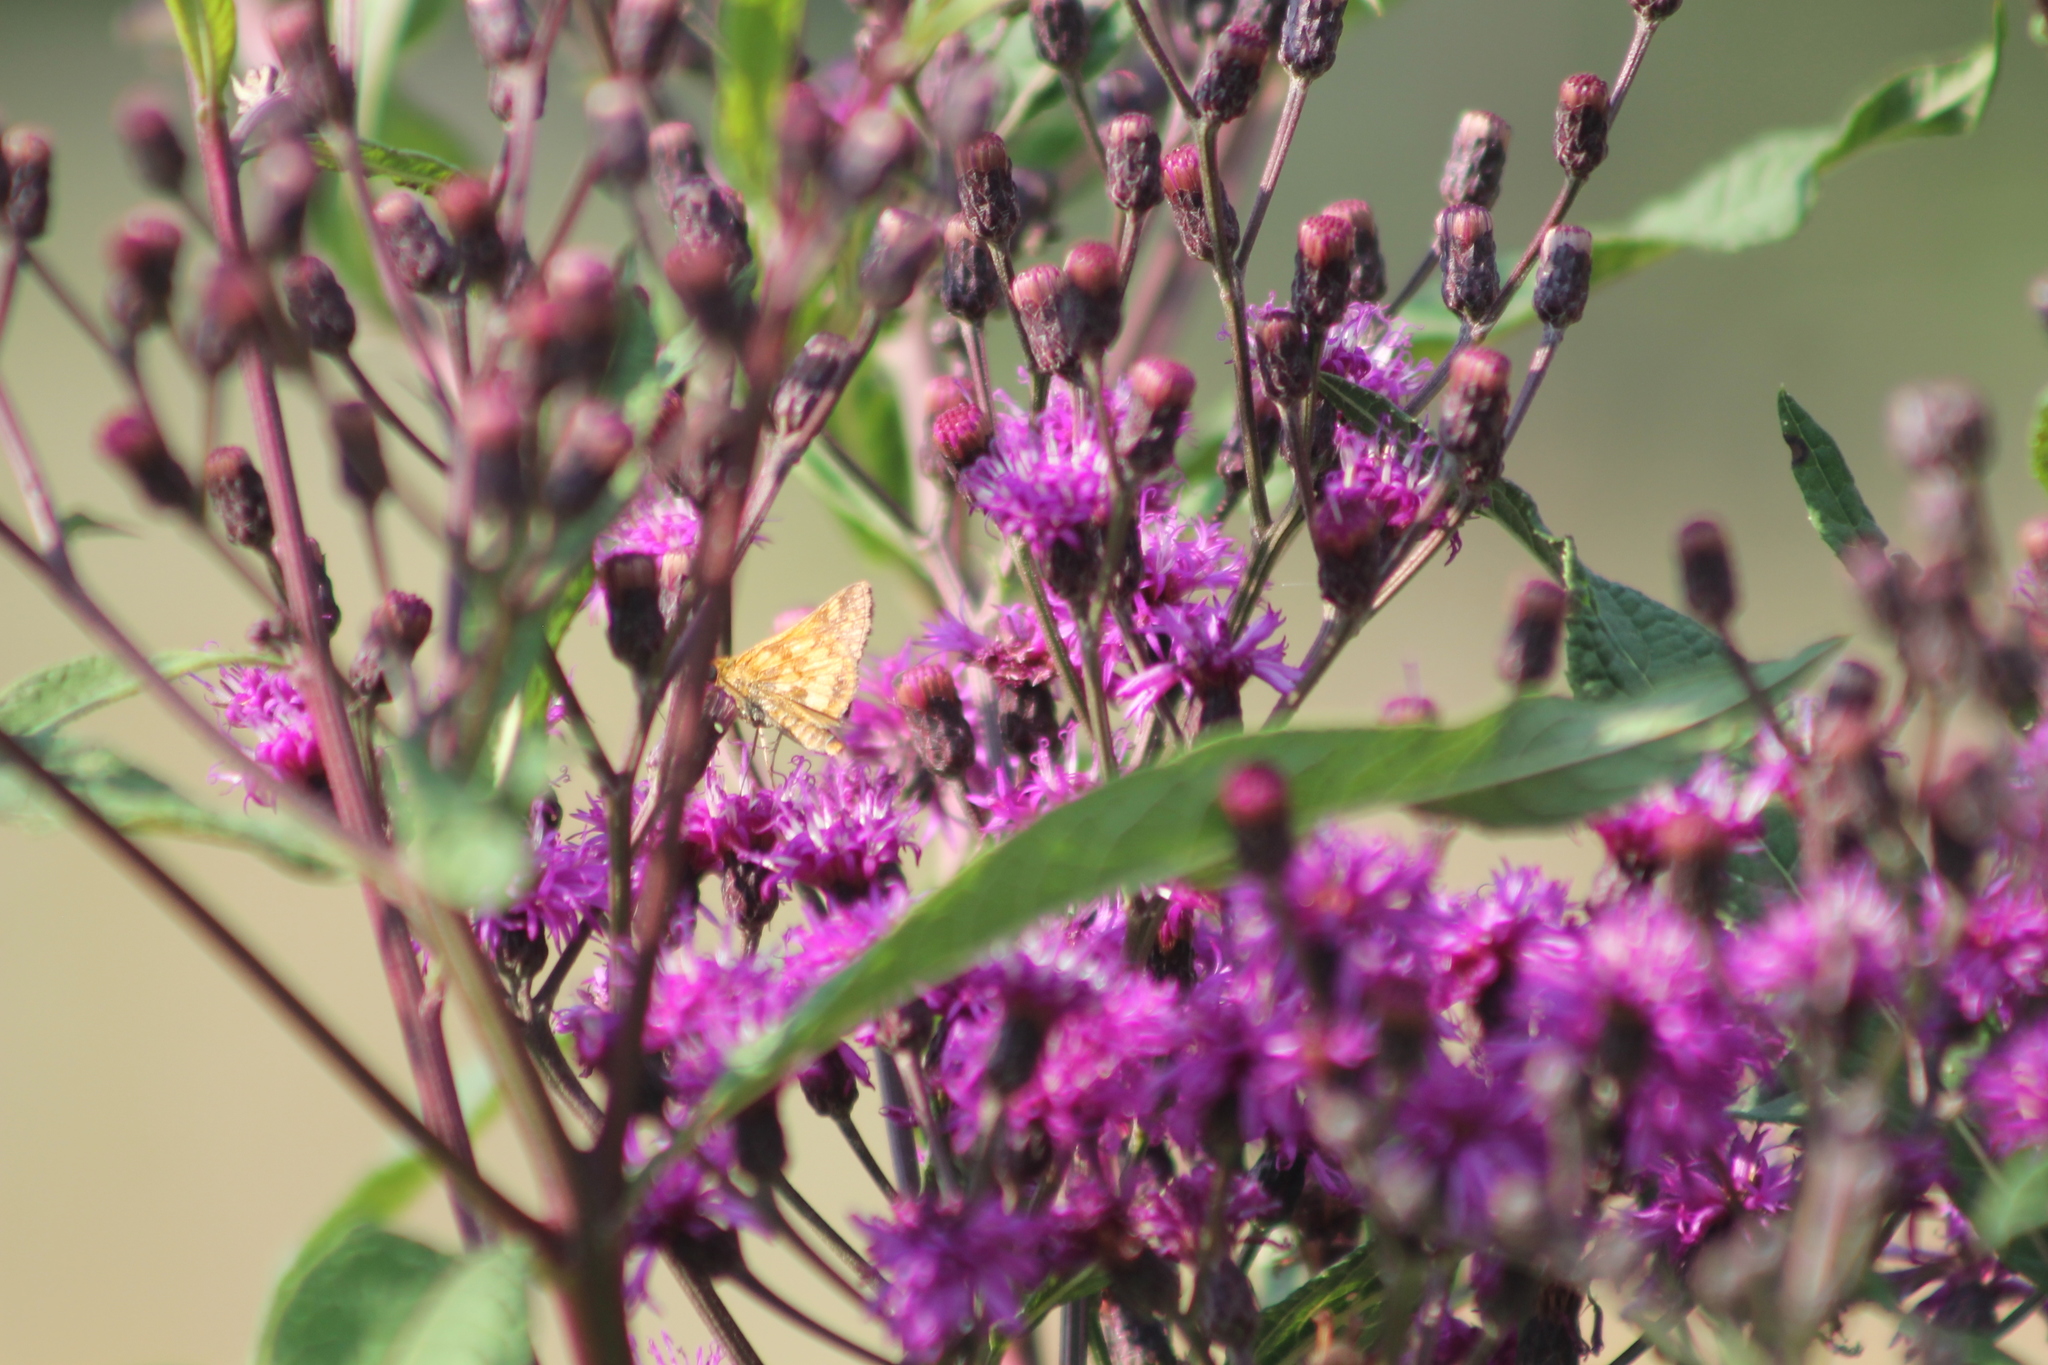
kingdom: Animalia
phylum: Arthropoda
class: Insecta
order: Lepidoptera
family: Hesperiidae
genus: Polites
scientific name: Polites coras
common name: Peck's skipper
